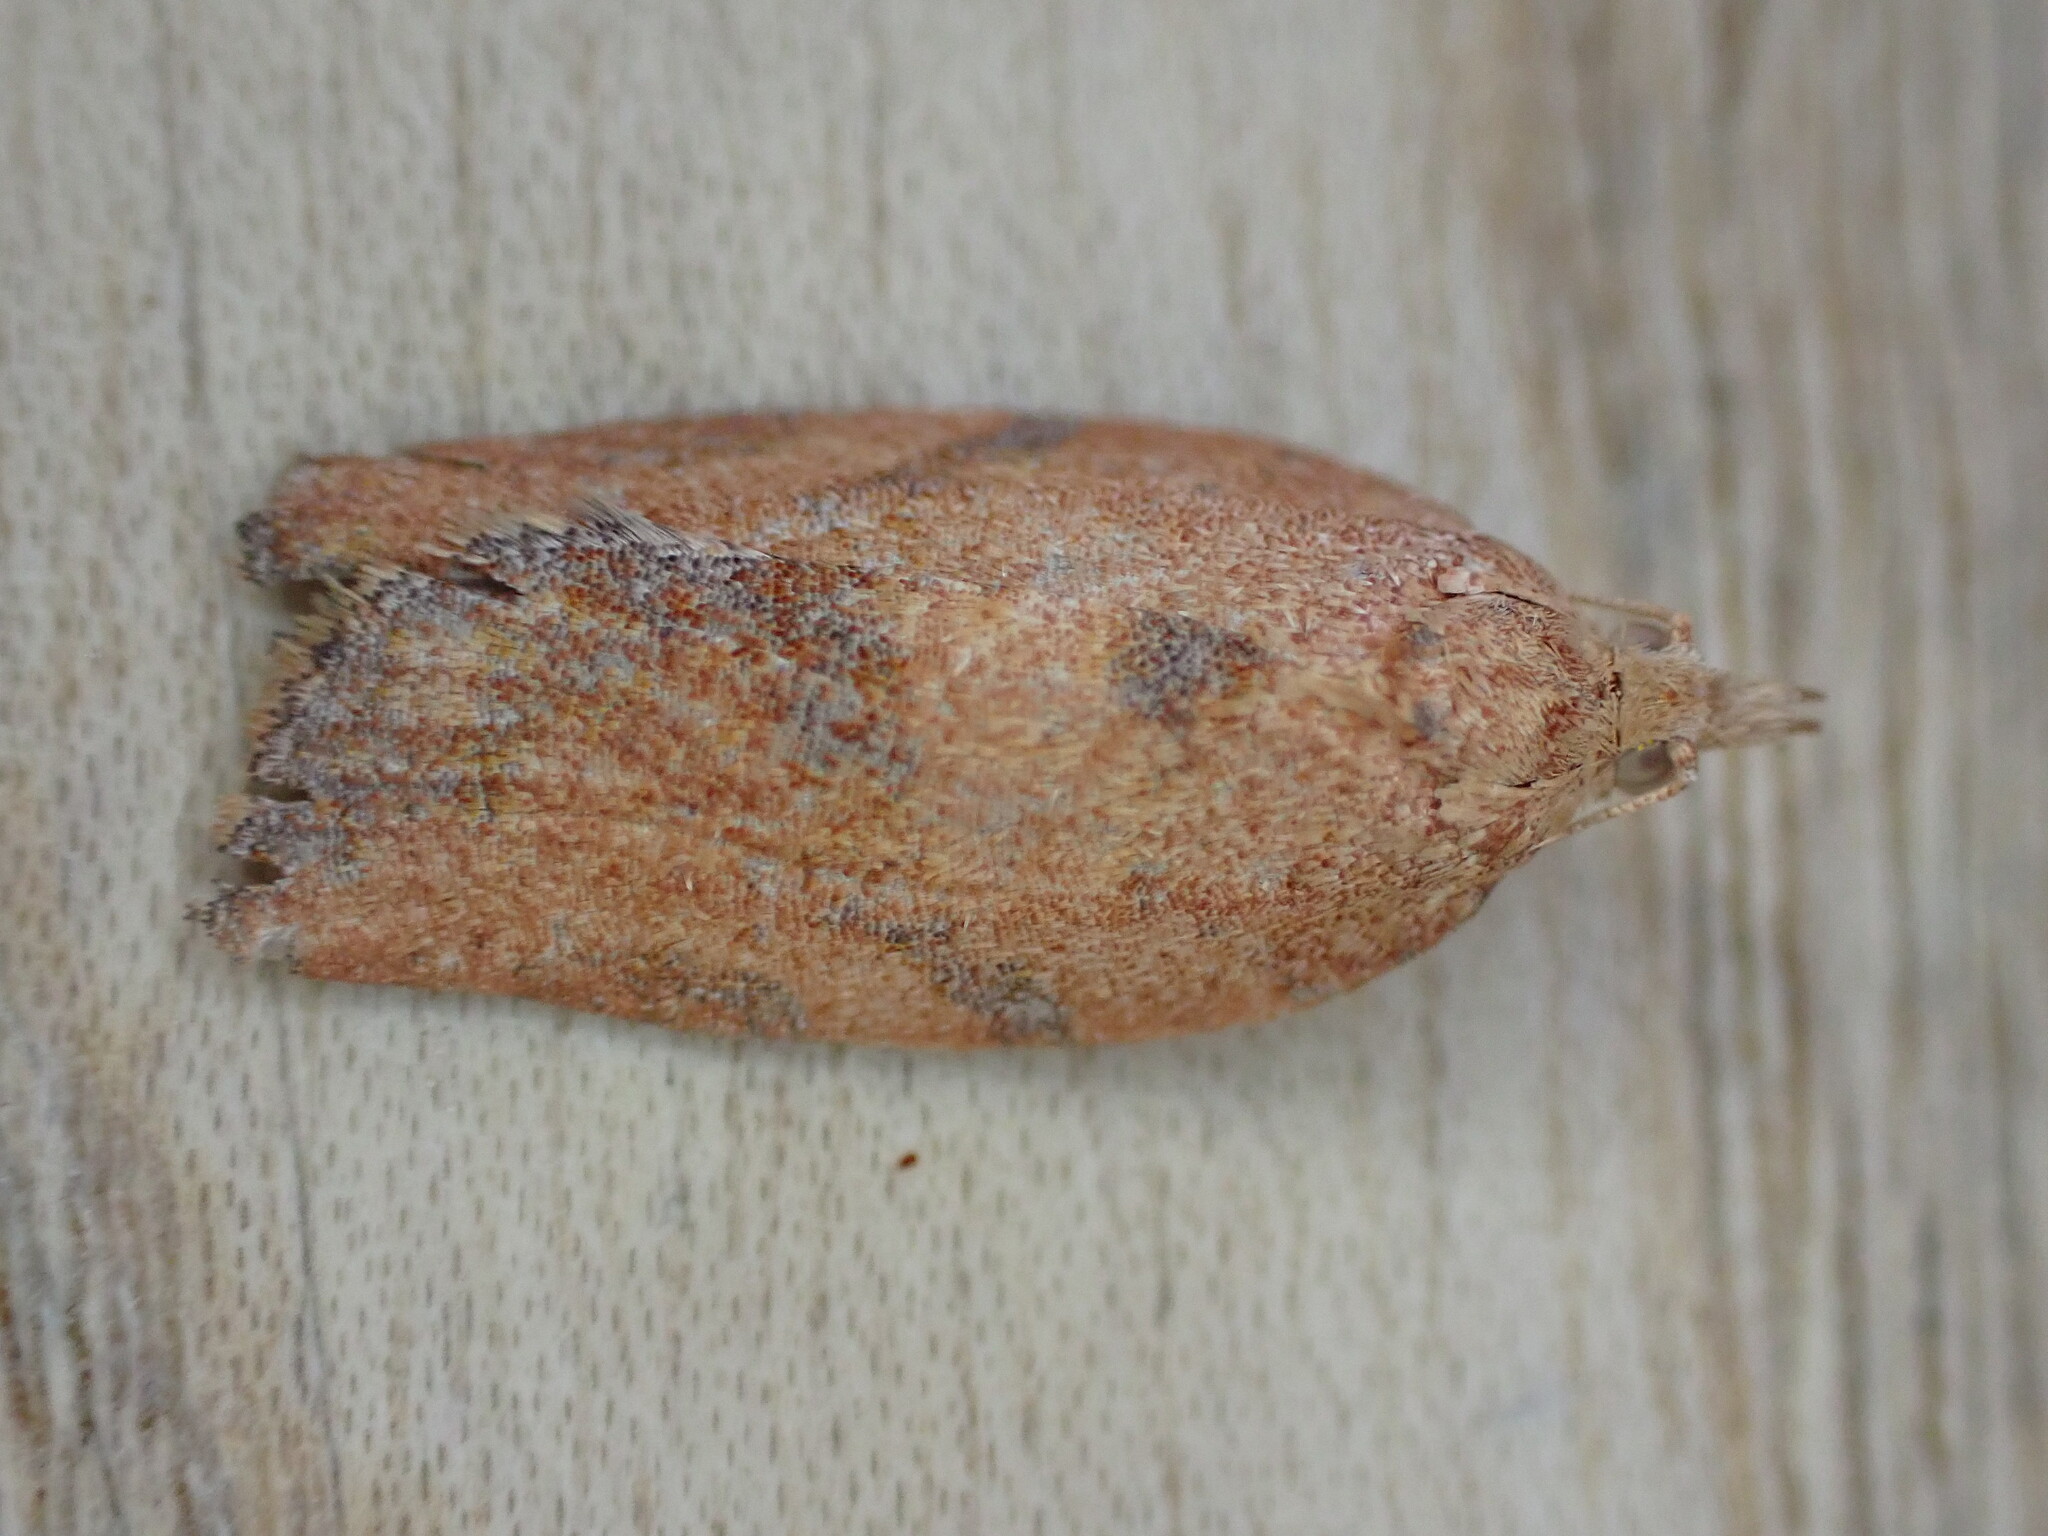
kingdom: Animalia
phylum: Arthropoda
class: Insecta
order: Lepidoptera
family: Tortricidae
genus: Epiphyas
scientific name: Epiphyas postvittana
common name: Light brown apple moth
